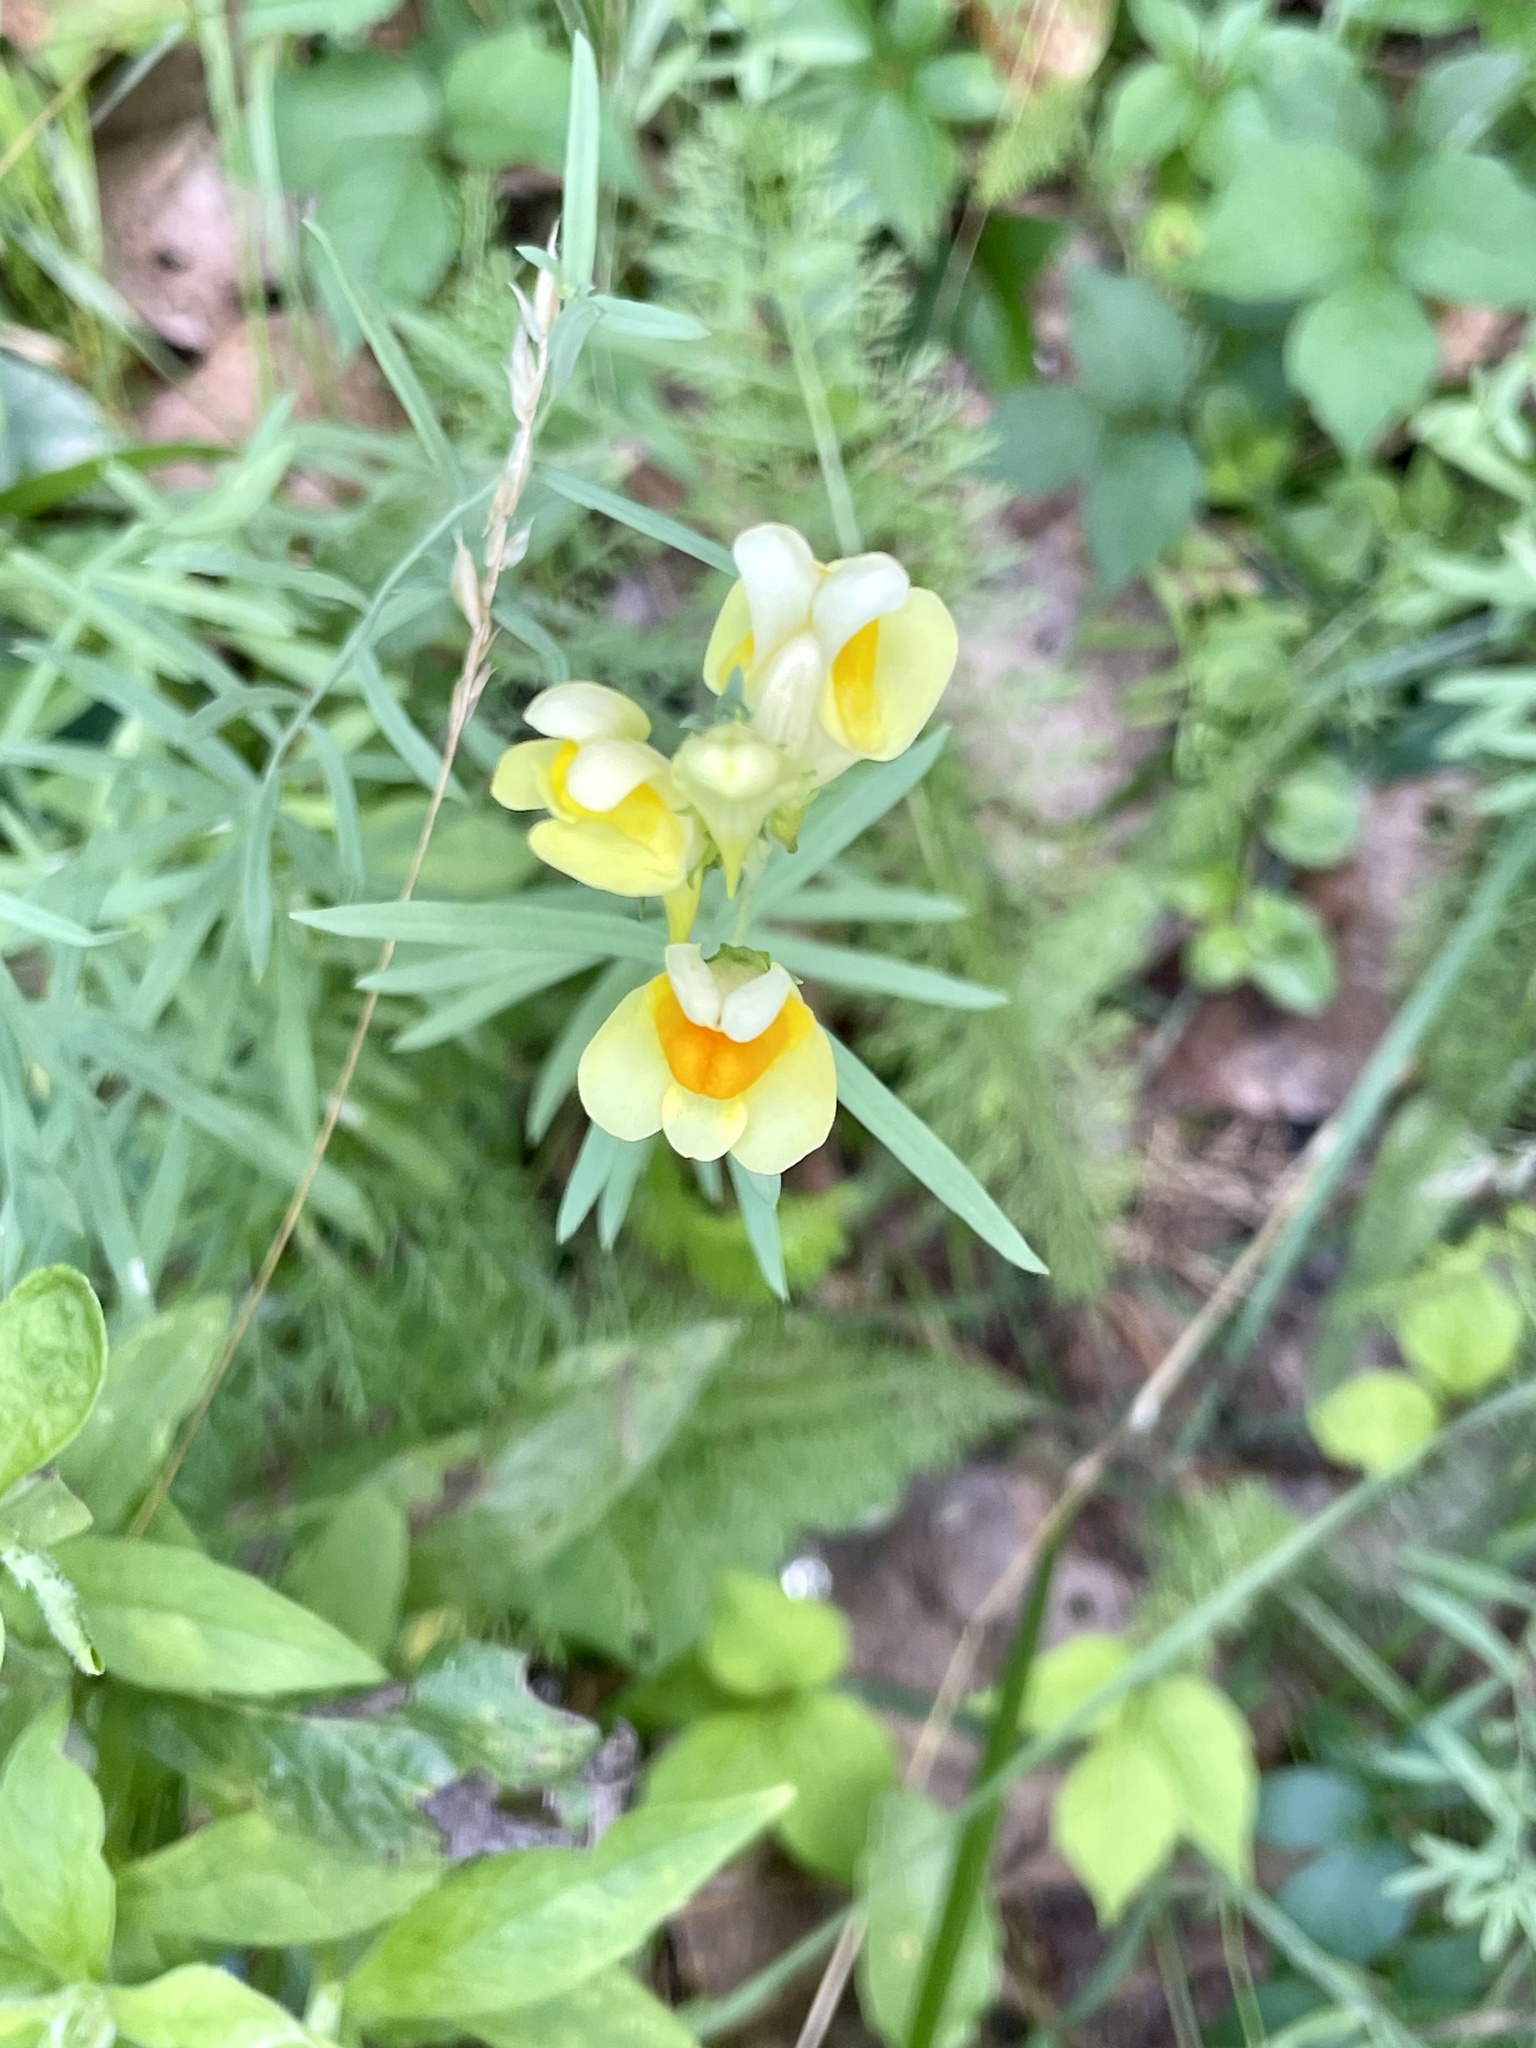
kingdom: Plantae
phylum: Tracheophyta
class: Magnoliopsida
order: Lamiales
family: Plantaginaceae
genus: Linaria
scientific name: Linaria vulgaris
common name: Butter and eggs
